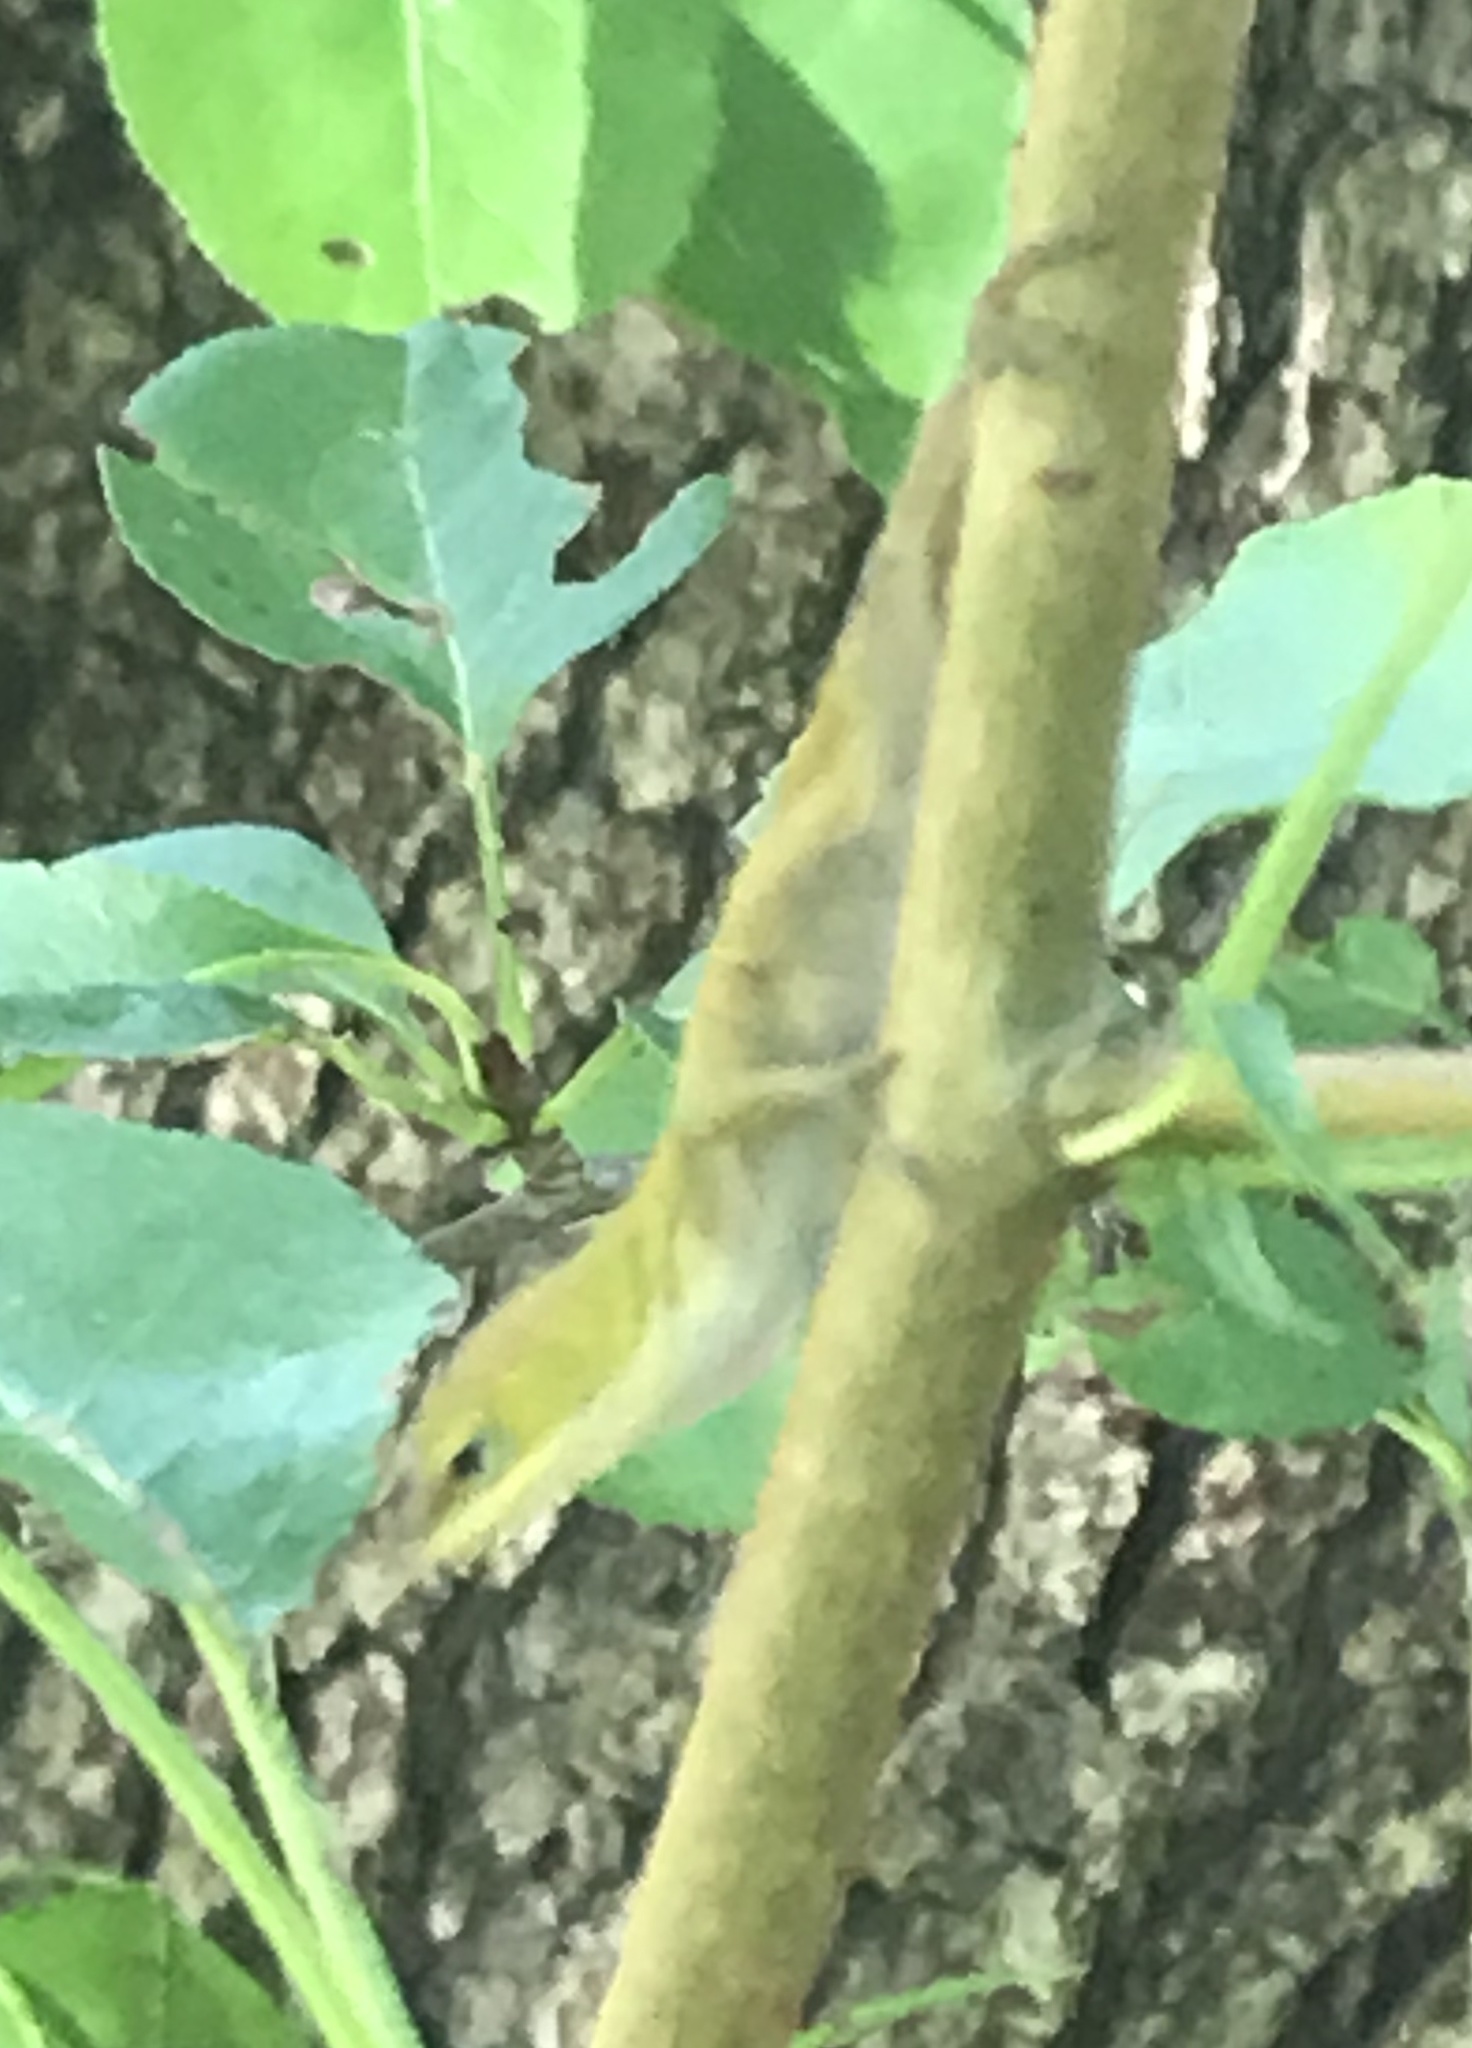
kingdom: Animalia
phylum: Chordata
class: Squamata
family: Dactyloidae
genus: Anolis
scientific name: Anolis carolinensis
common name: Green anole
